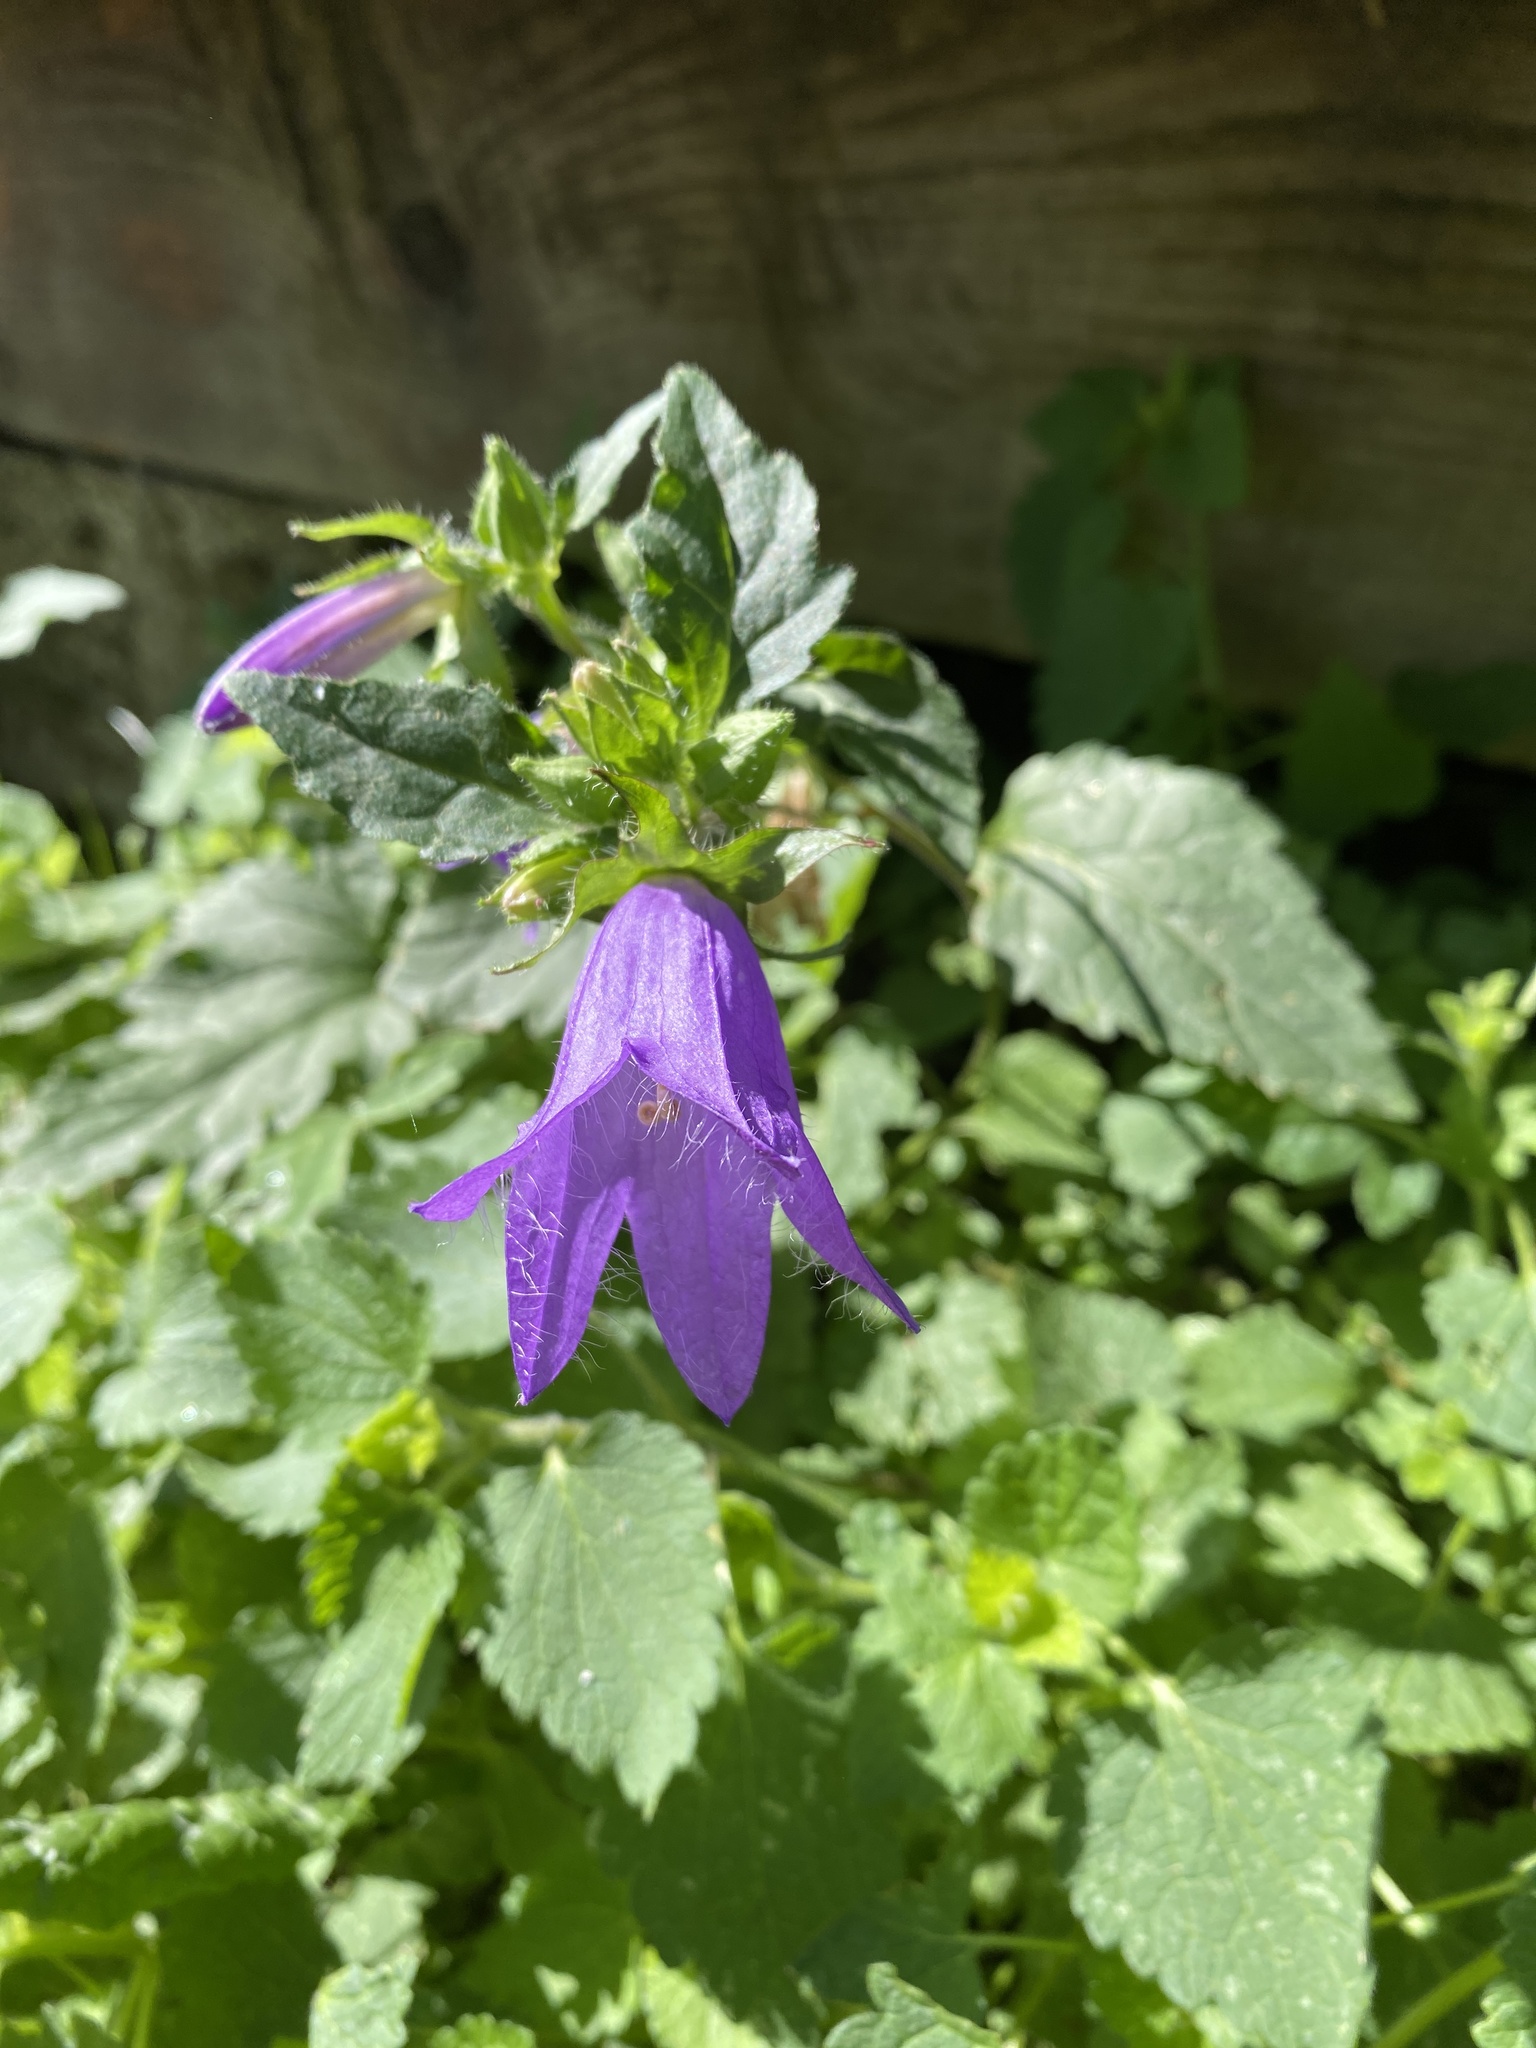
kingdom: Plantae
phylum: Tracheophyta
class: Magnoliopsida
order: Asterales
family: Campanulaceae
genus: Campanula
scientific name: Campanula trachelium
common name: Nettle-leaved bellflower
